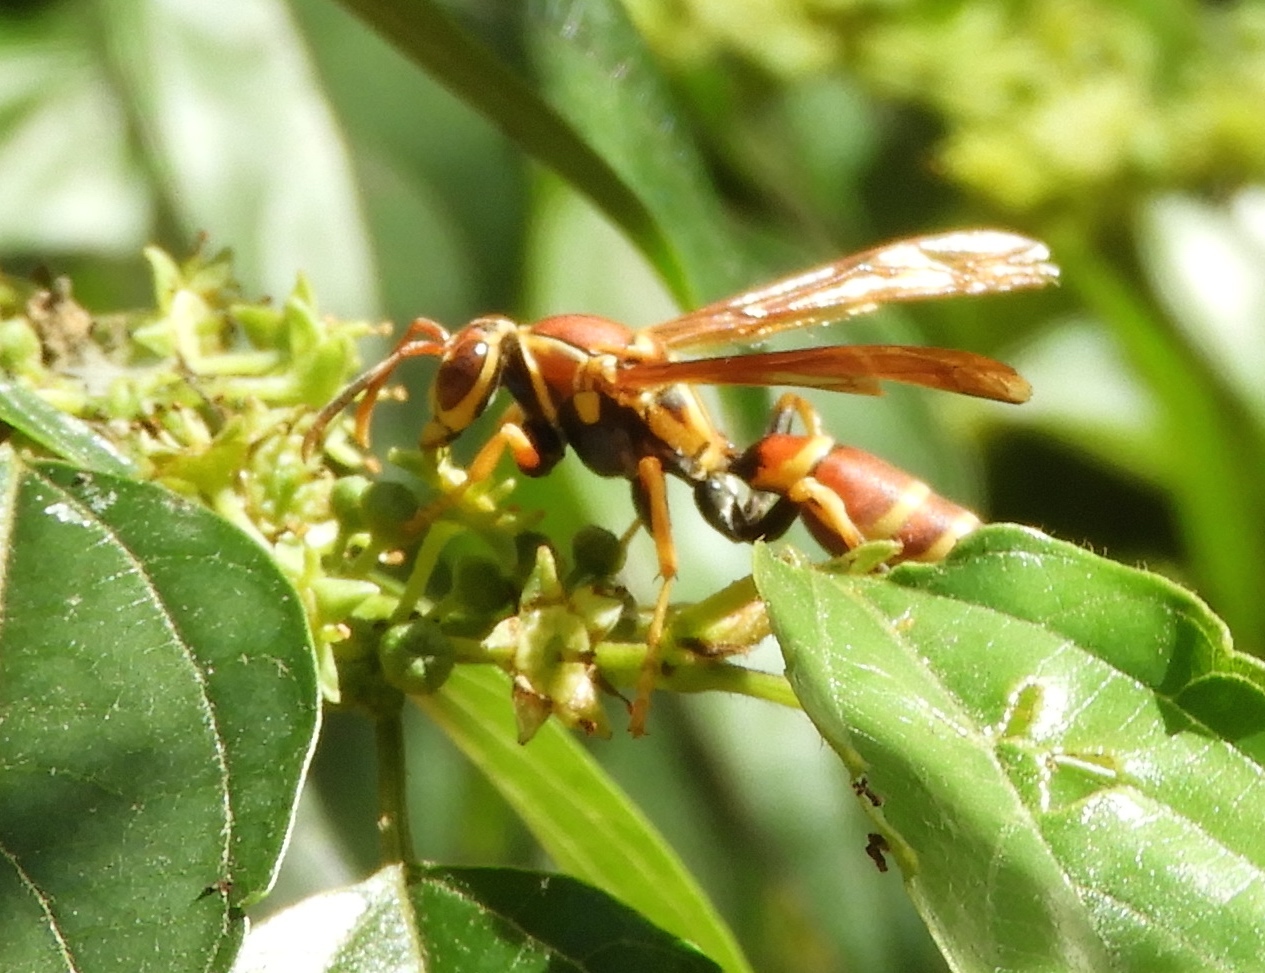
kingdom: Animalia
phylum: Arthropoda
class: Insecta
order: Hymenoptera
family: Pompilidae
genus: Aphanilopterus
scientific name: Aphanilopterus
